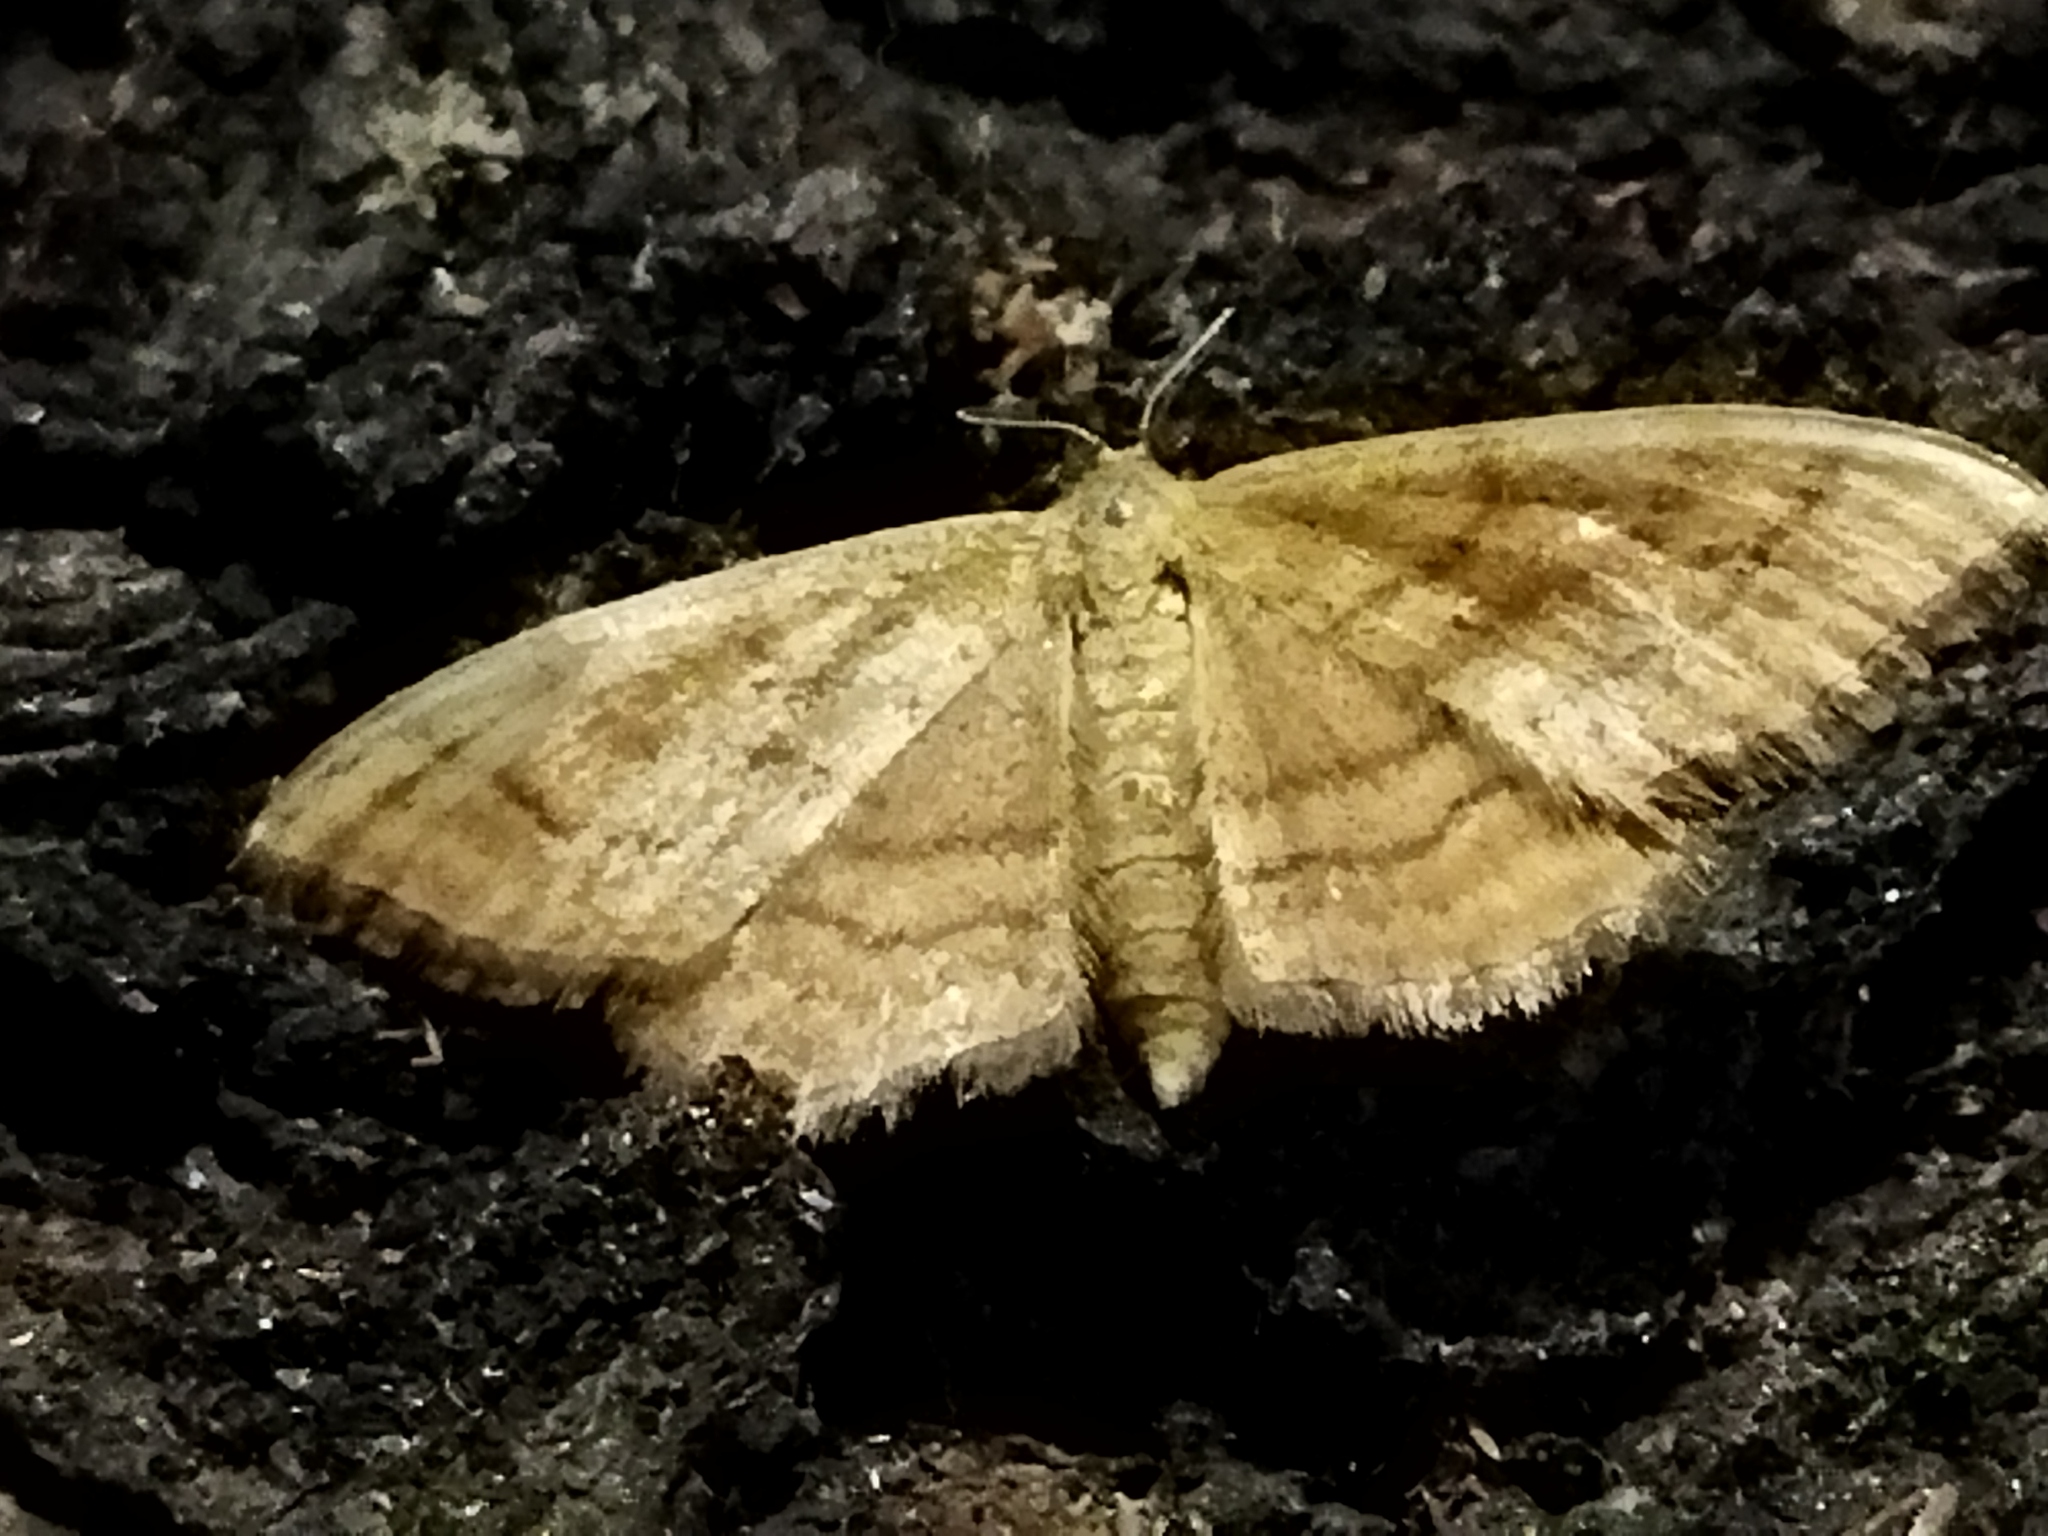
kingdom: Animalia
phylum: Arthropoda
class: Insecta
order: Lepidoptera
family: Geometridae
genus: Idaea
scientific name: Idaea ochrata
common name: Bright wave
